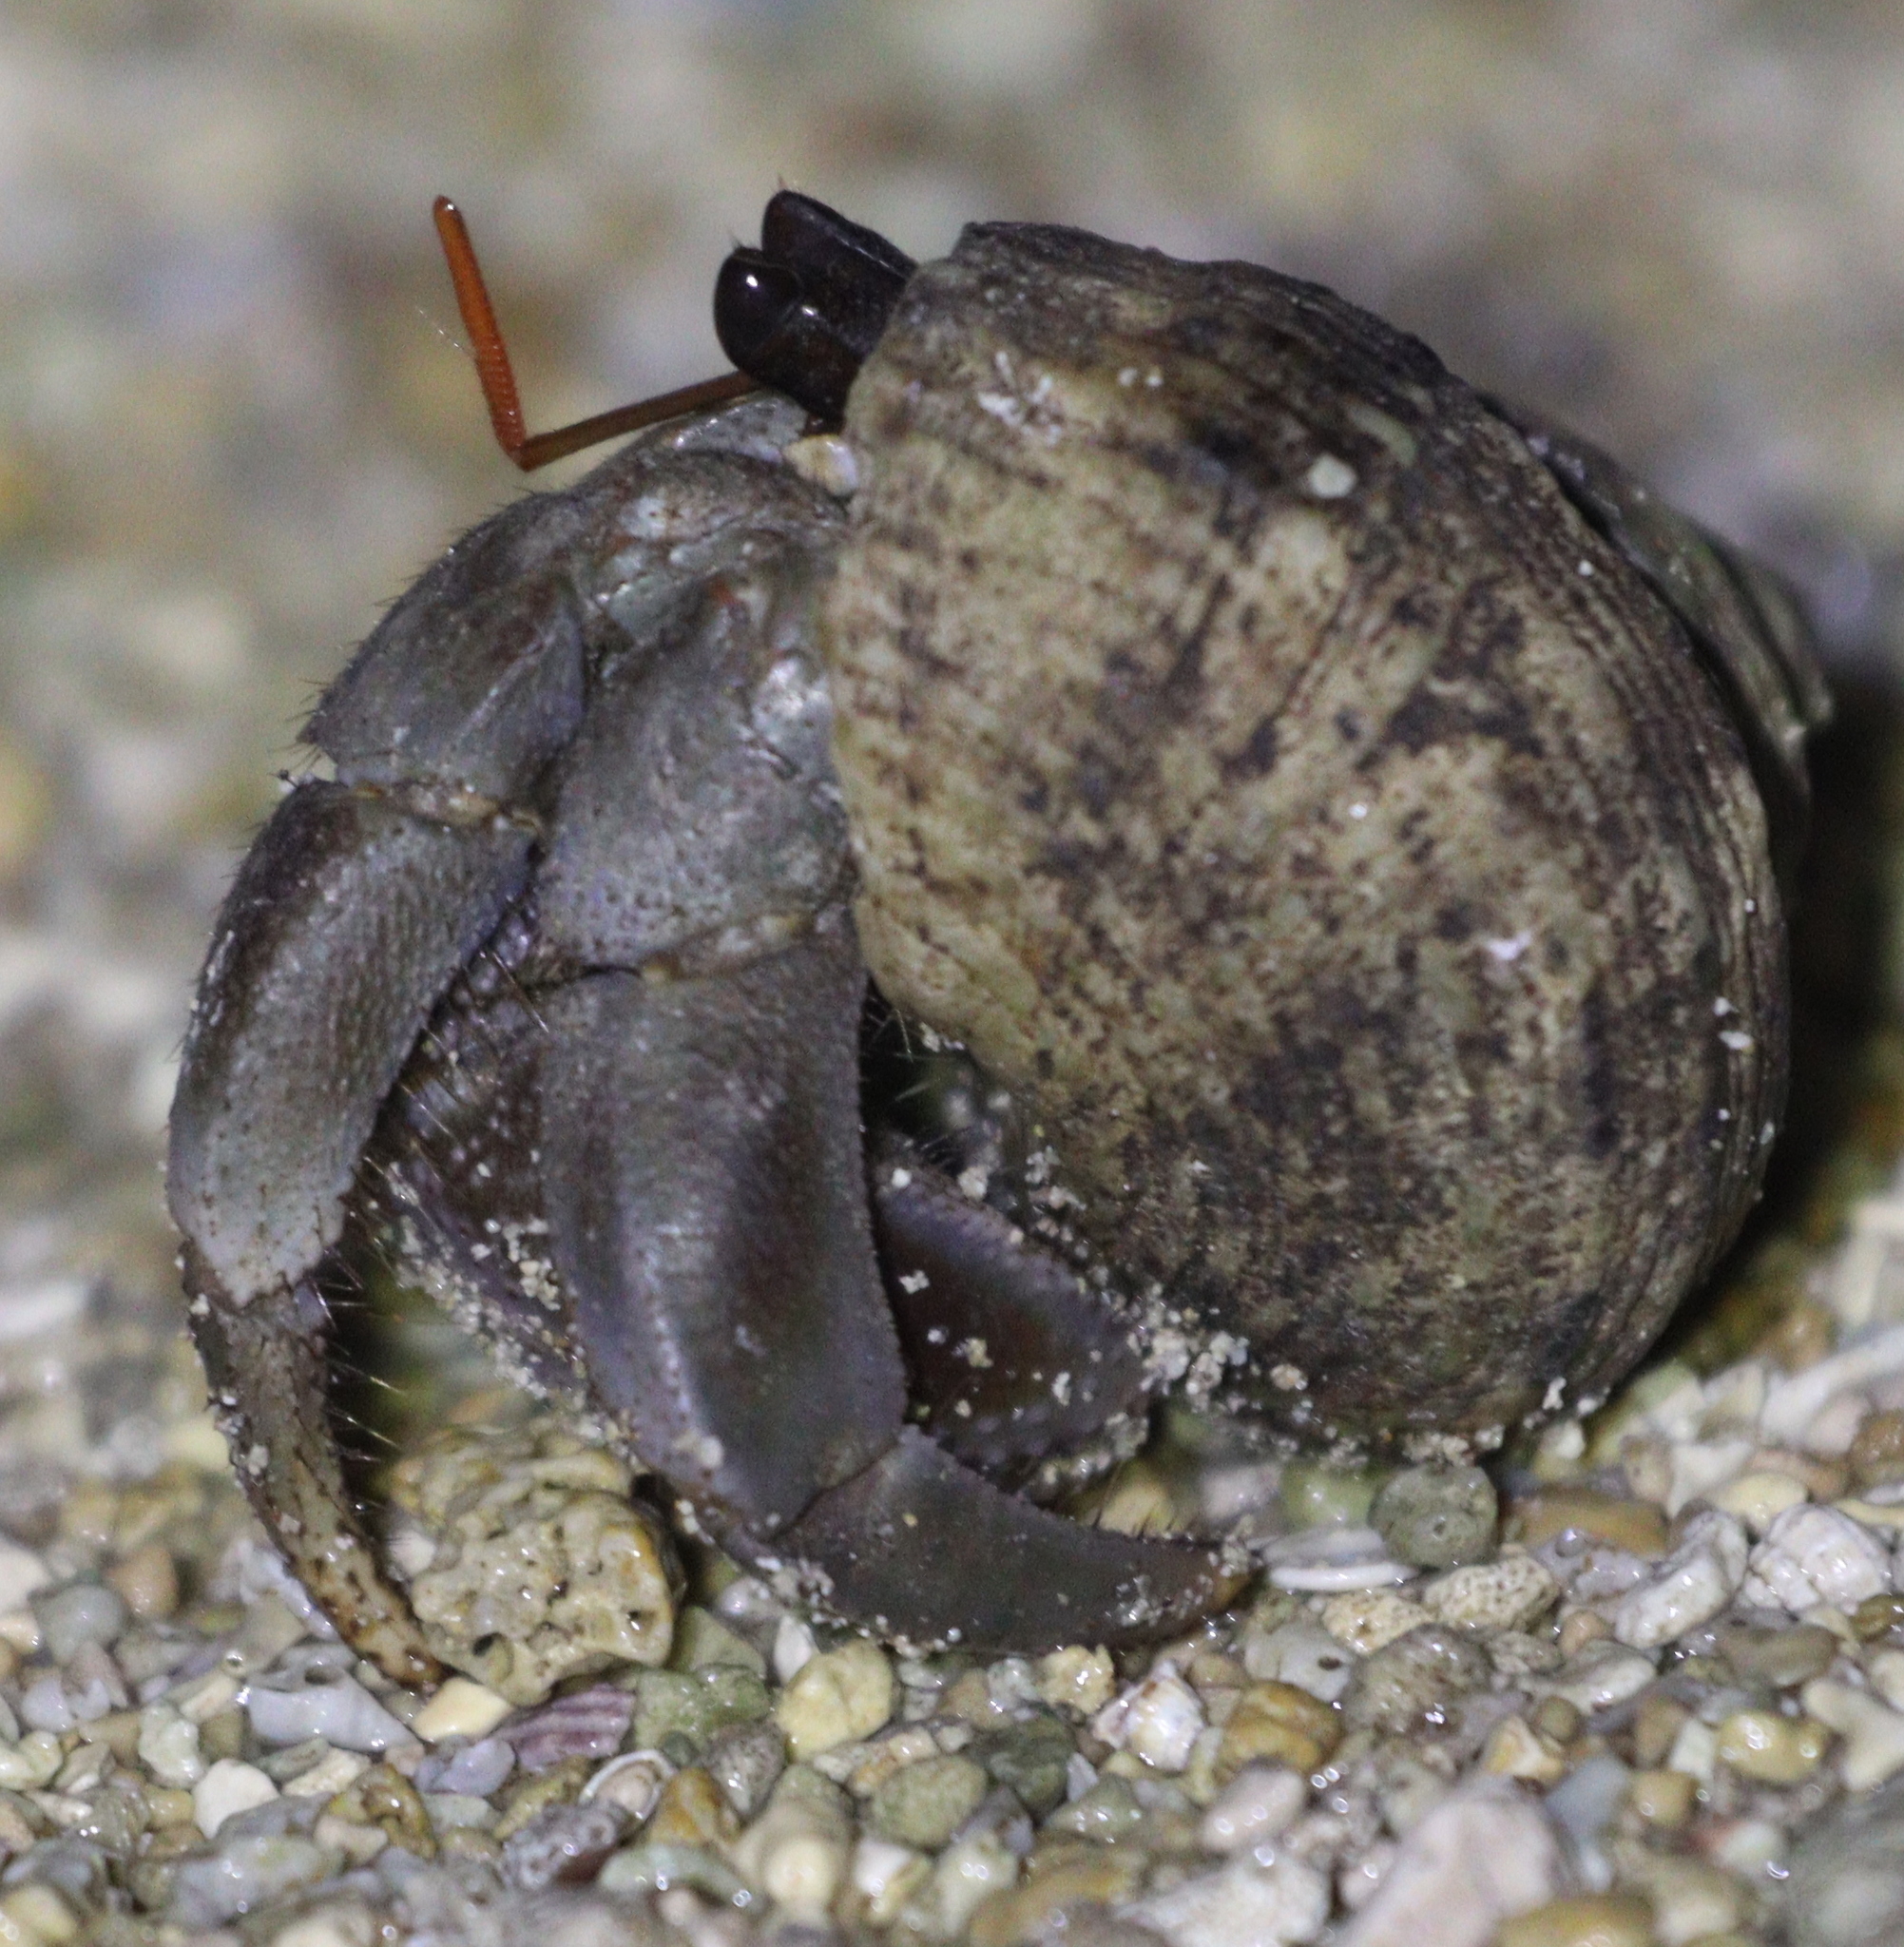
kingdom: Animalia
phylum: Arthropoda
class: Malacostraca
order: Decapoda
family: Coenobitidae
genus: Coenobita
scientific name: Coenobita violascens
